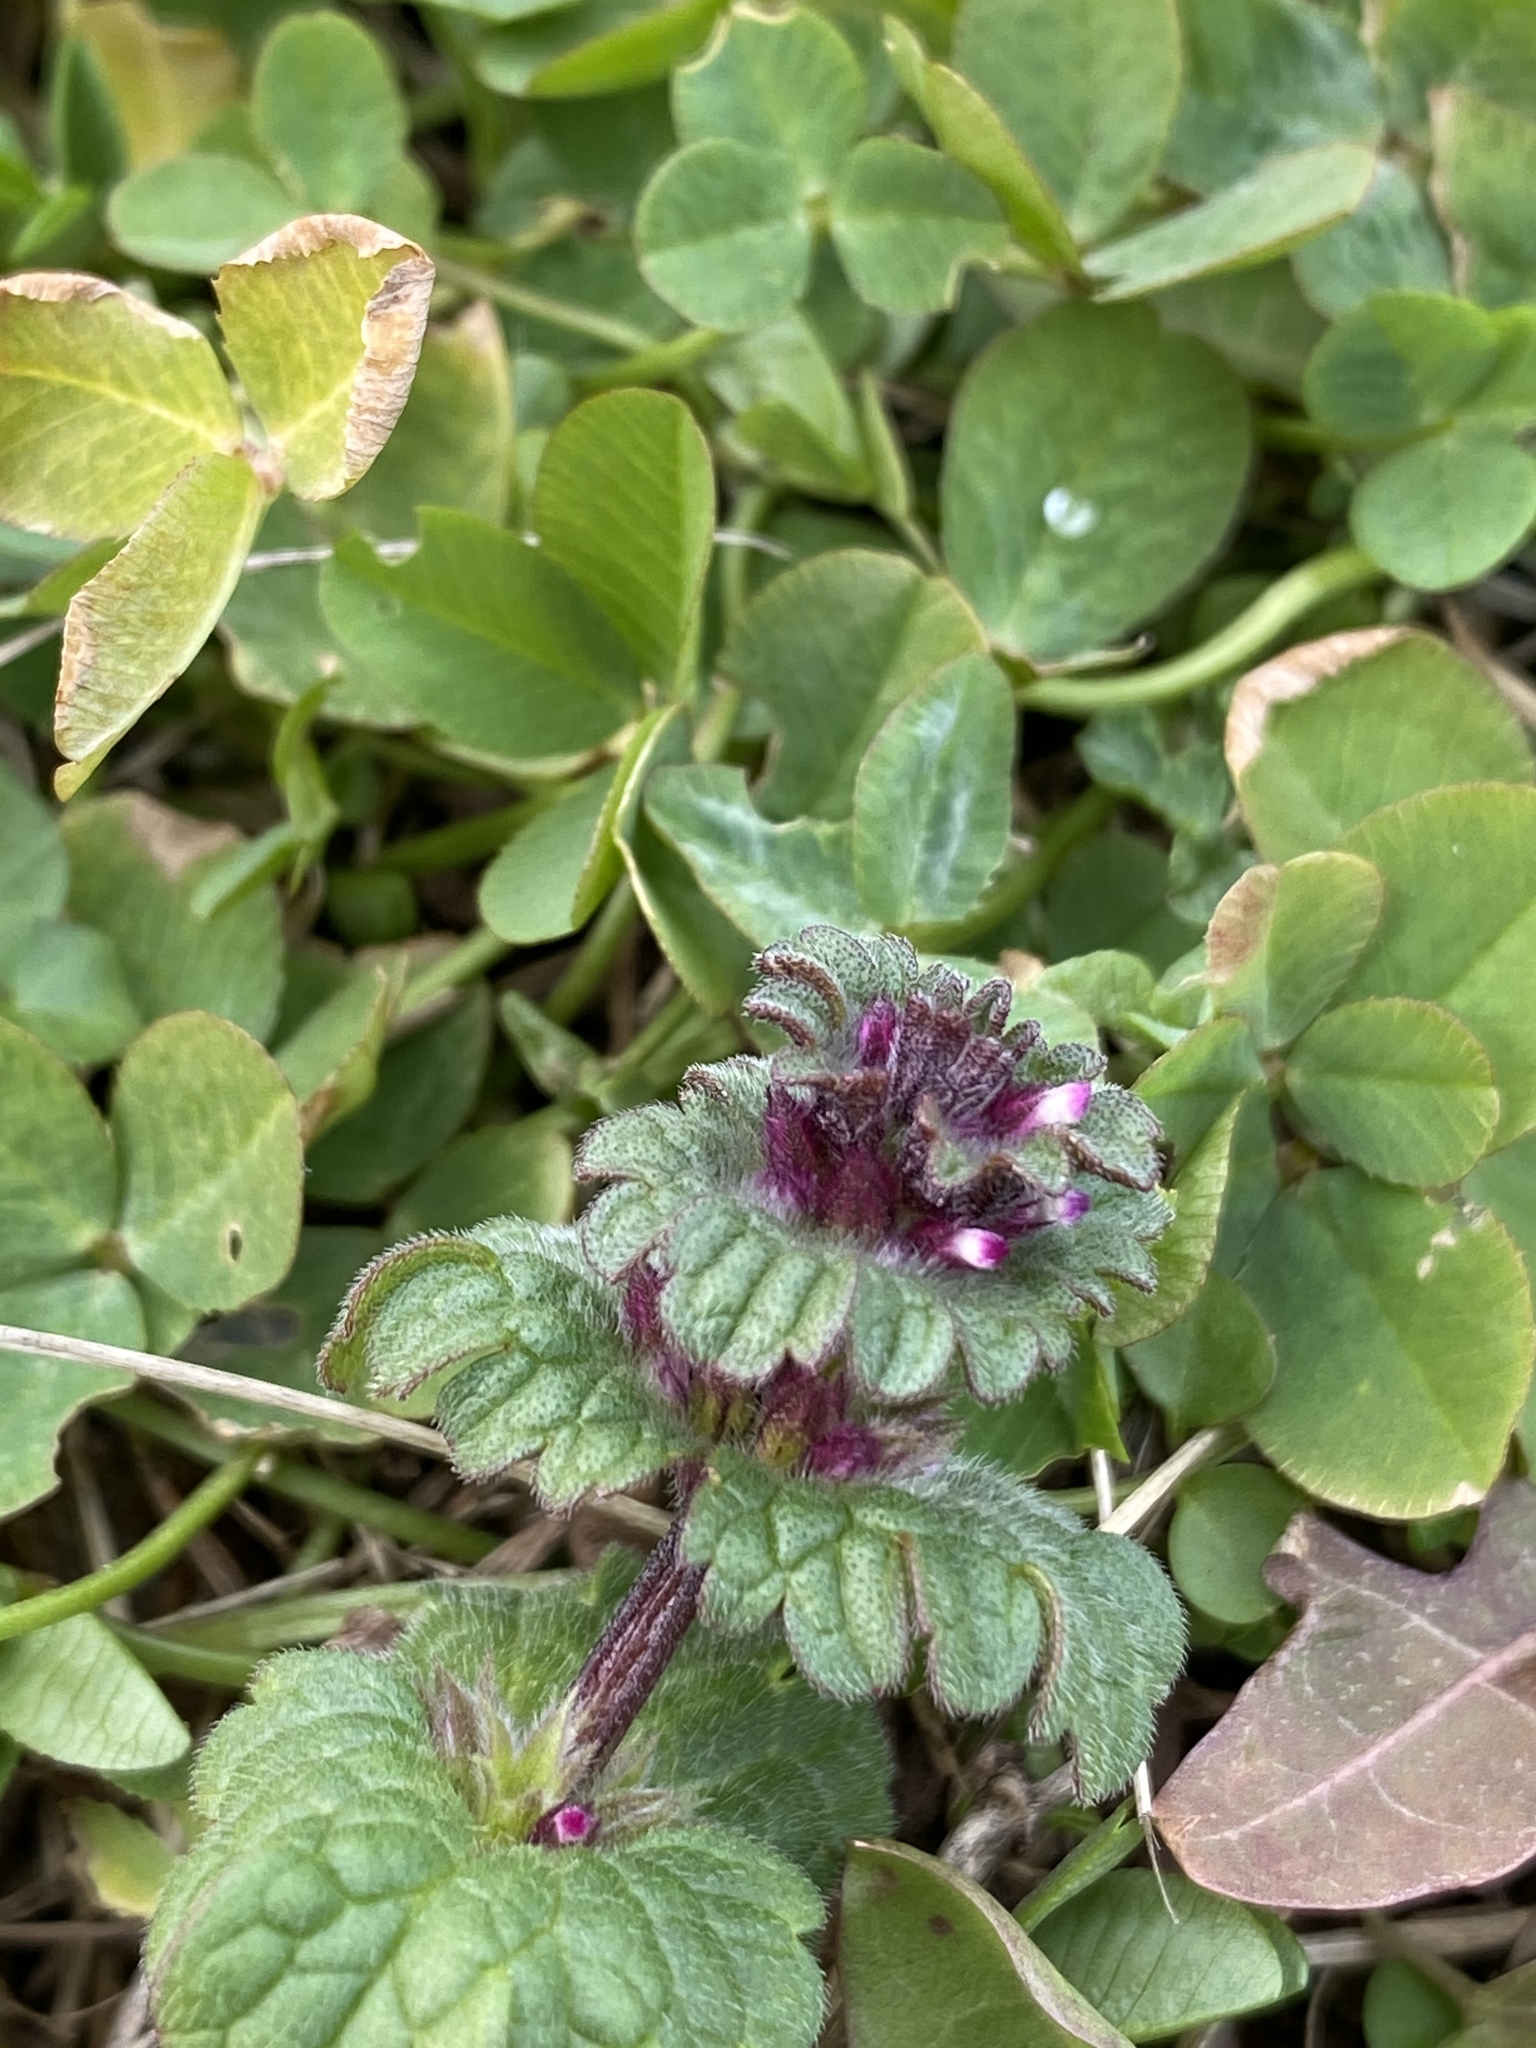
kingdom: Plantae
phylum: Tracheophyta
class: Magnoliopsida
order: Lamiales
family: Lamiaceae
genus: Lamium
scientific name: Lamium amplexicaule
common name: Henbit dead-nettle
